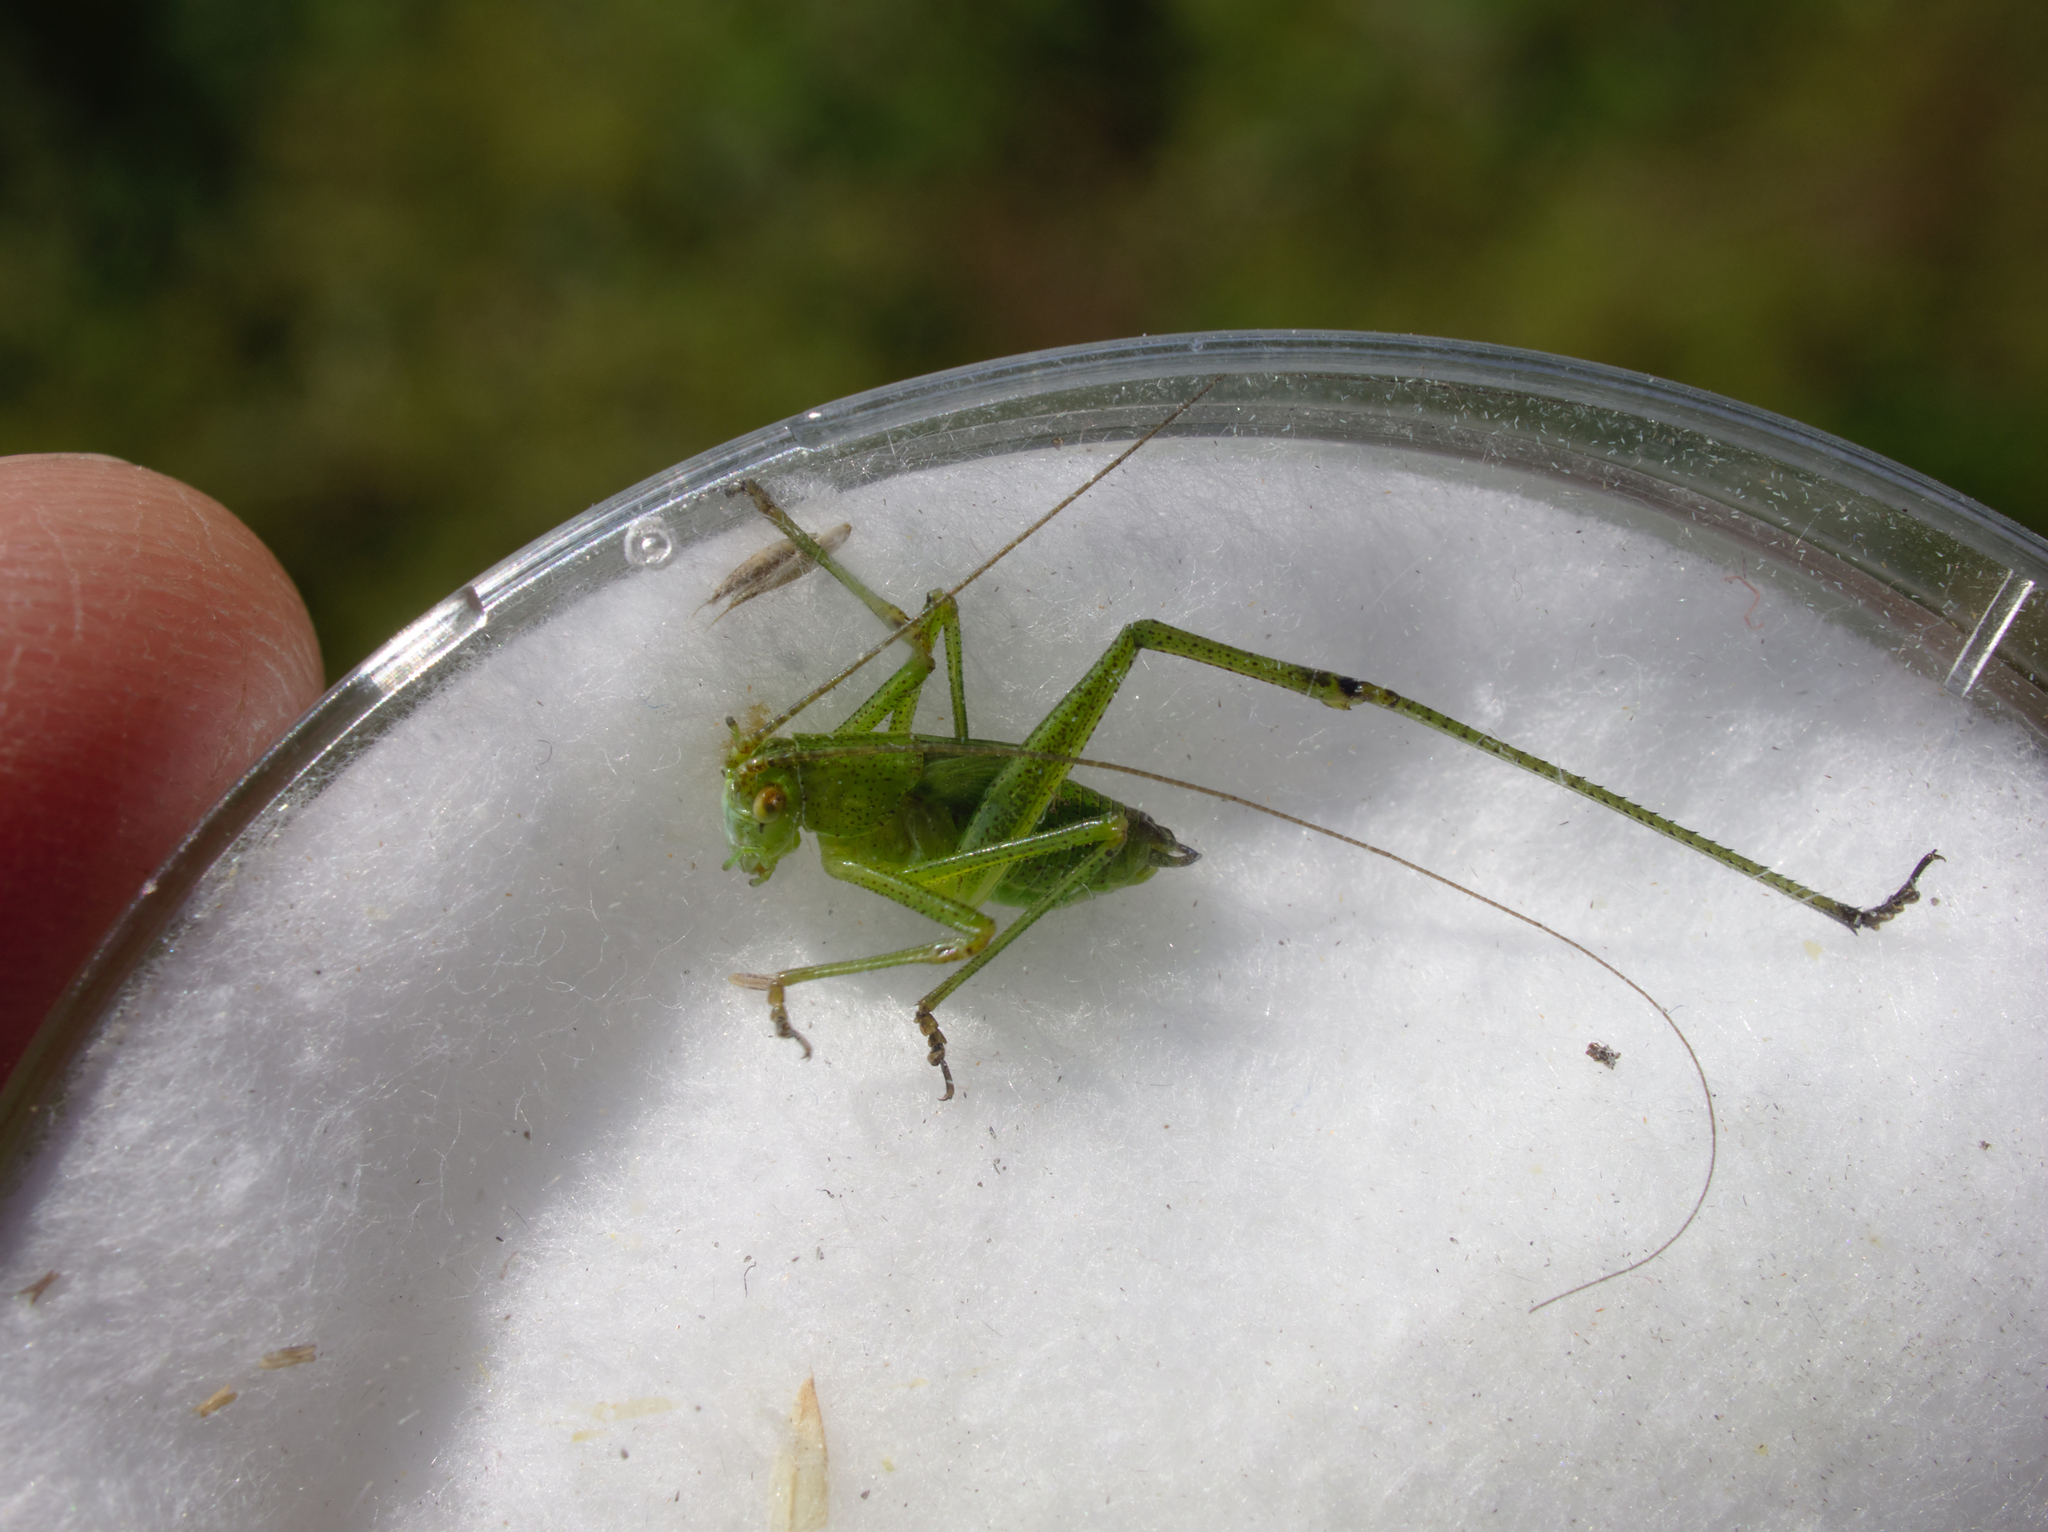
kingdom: Animalia
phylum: Arthropoda
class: Insecta
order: Orthoptera
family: Tettigoniidae
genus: Phaneroptera
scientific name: Phaneroptera falcata
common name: Sickle-bearing bush-cricket
